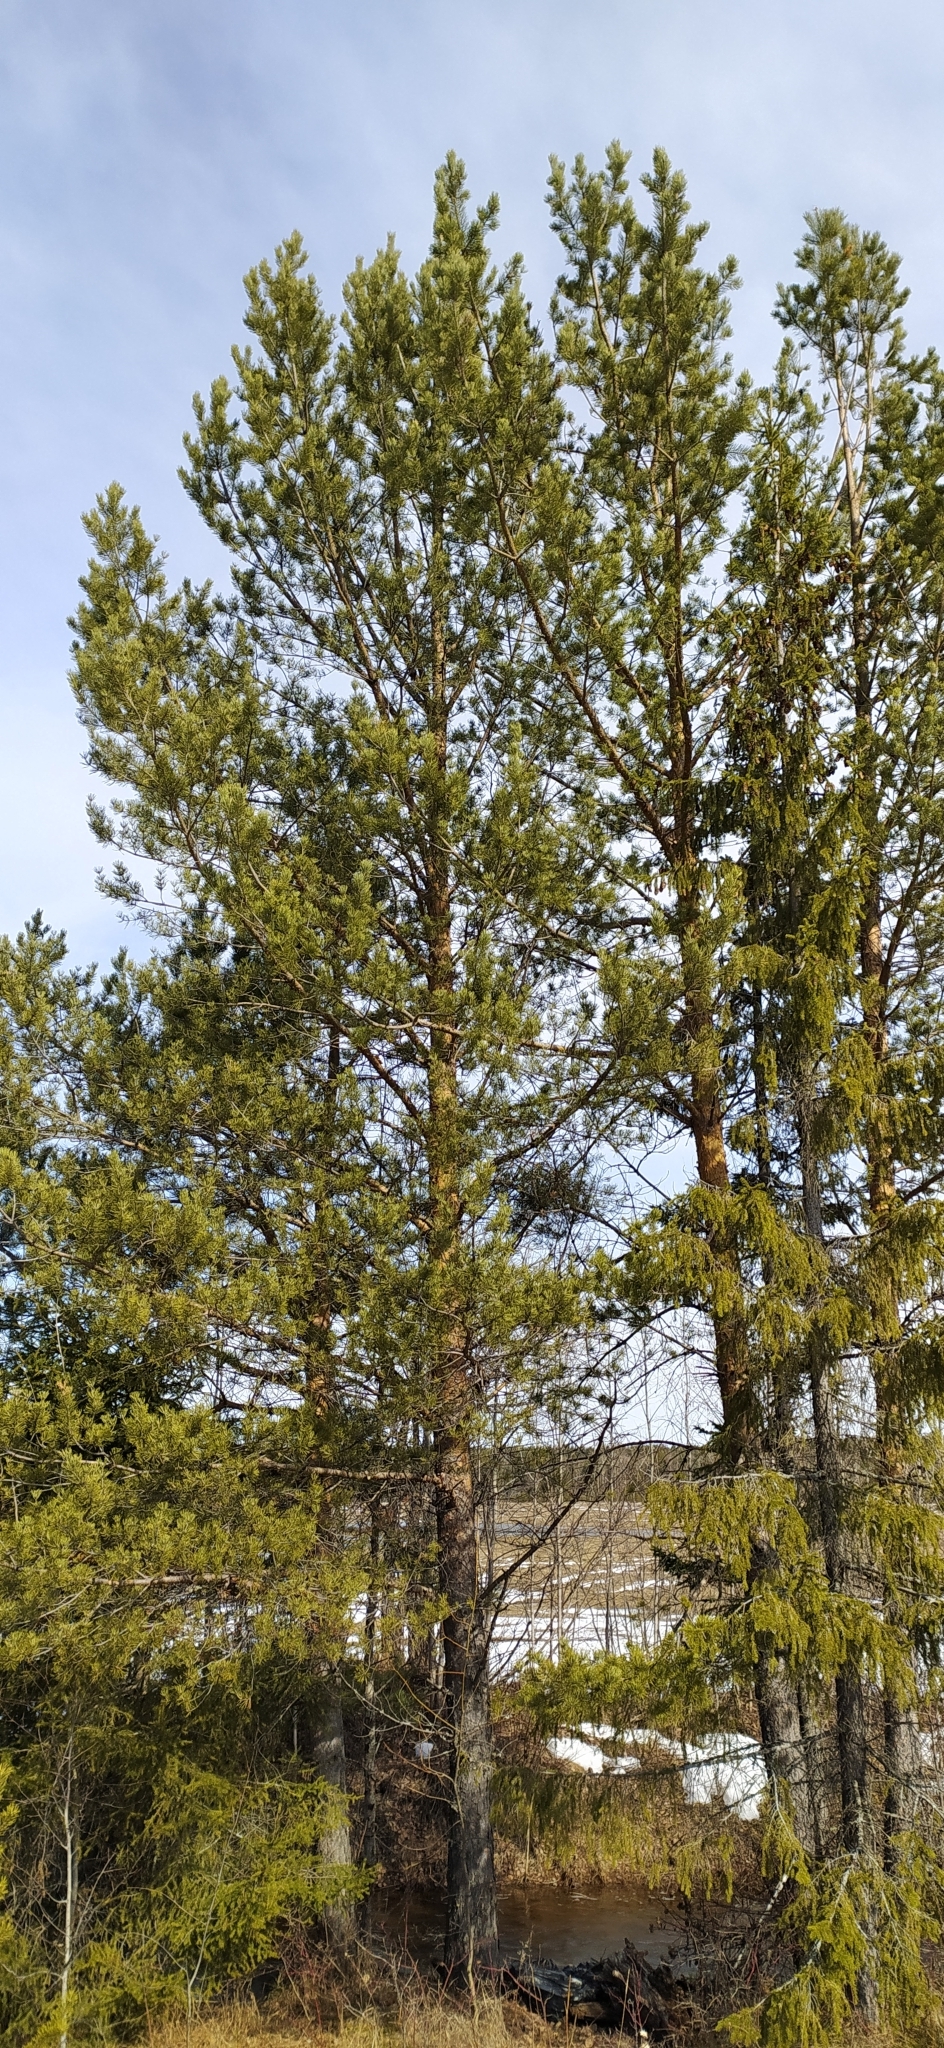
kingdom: Plantae
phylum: Tracheophyta
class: Pinopsida
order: Pinales
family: Pinaceae
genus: Pinus
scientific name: Pinus sylvestris
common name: Scots pine
